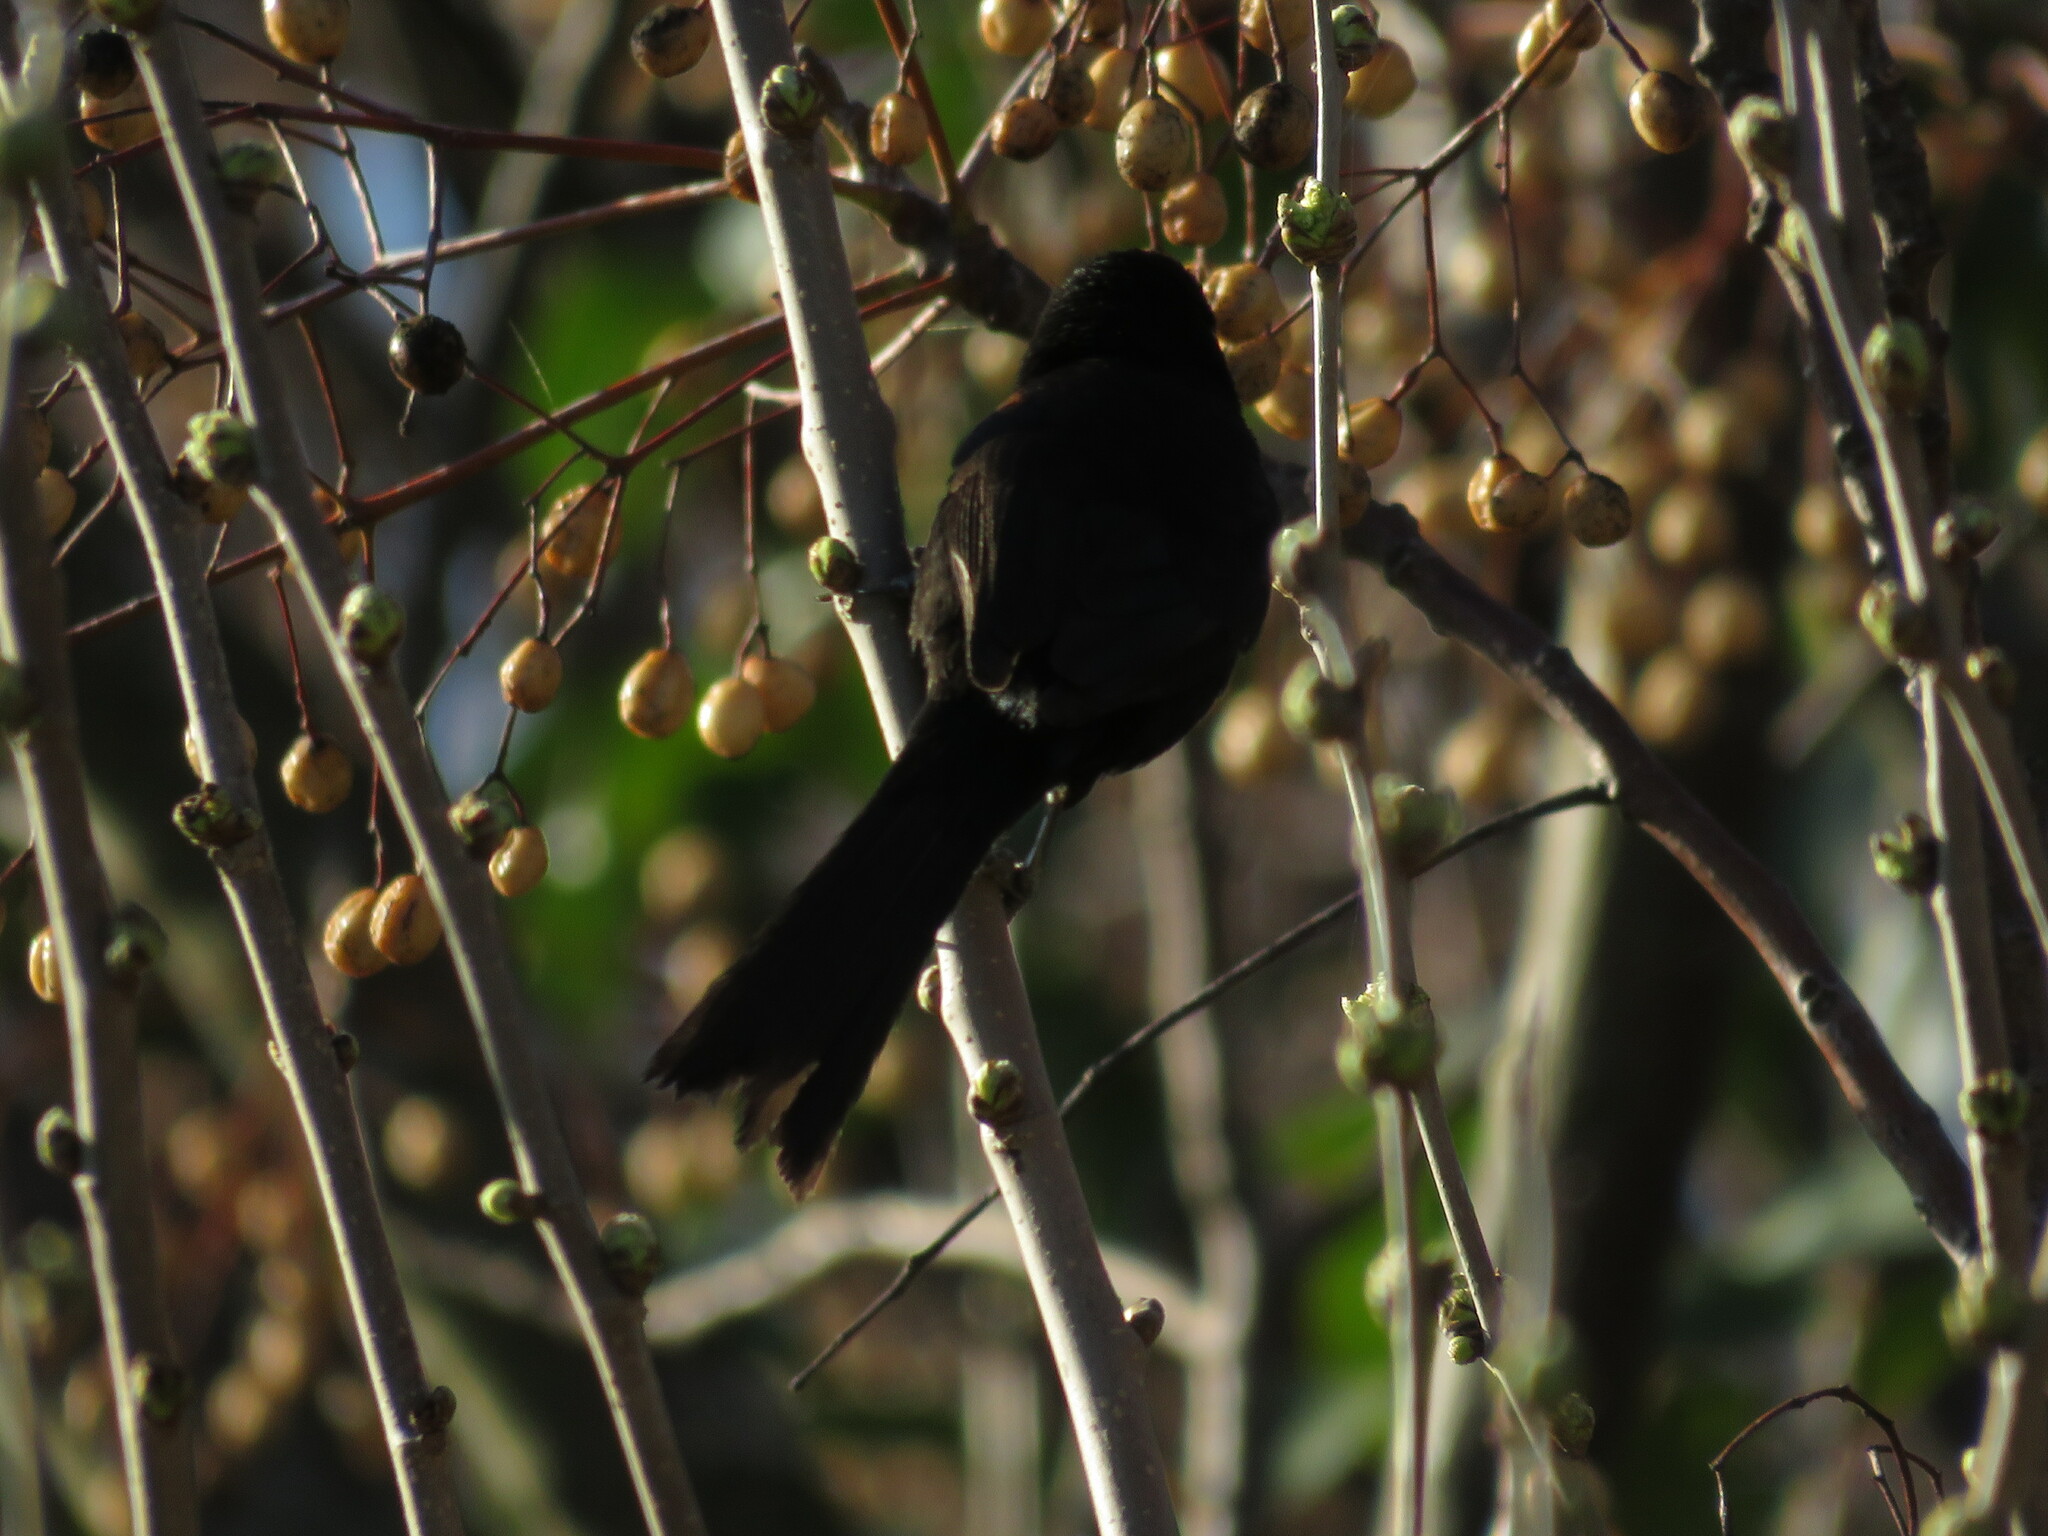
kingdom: Animalia
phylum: Chordata
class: Aves
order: Passeriformes
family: Icteridae
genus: Icterus
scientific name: Icterus cayanensis
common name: Epaulet oriole
